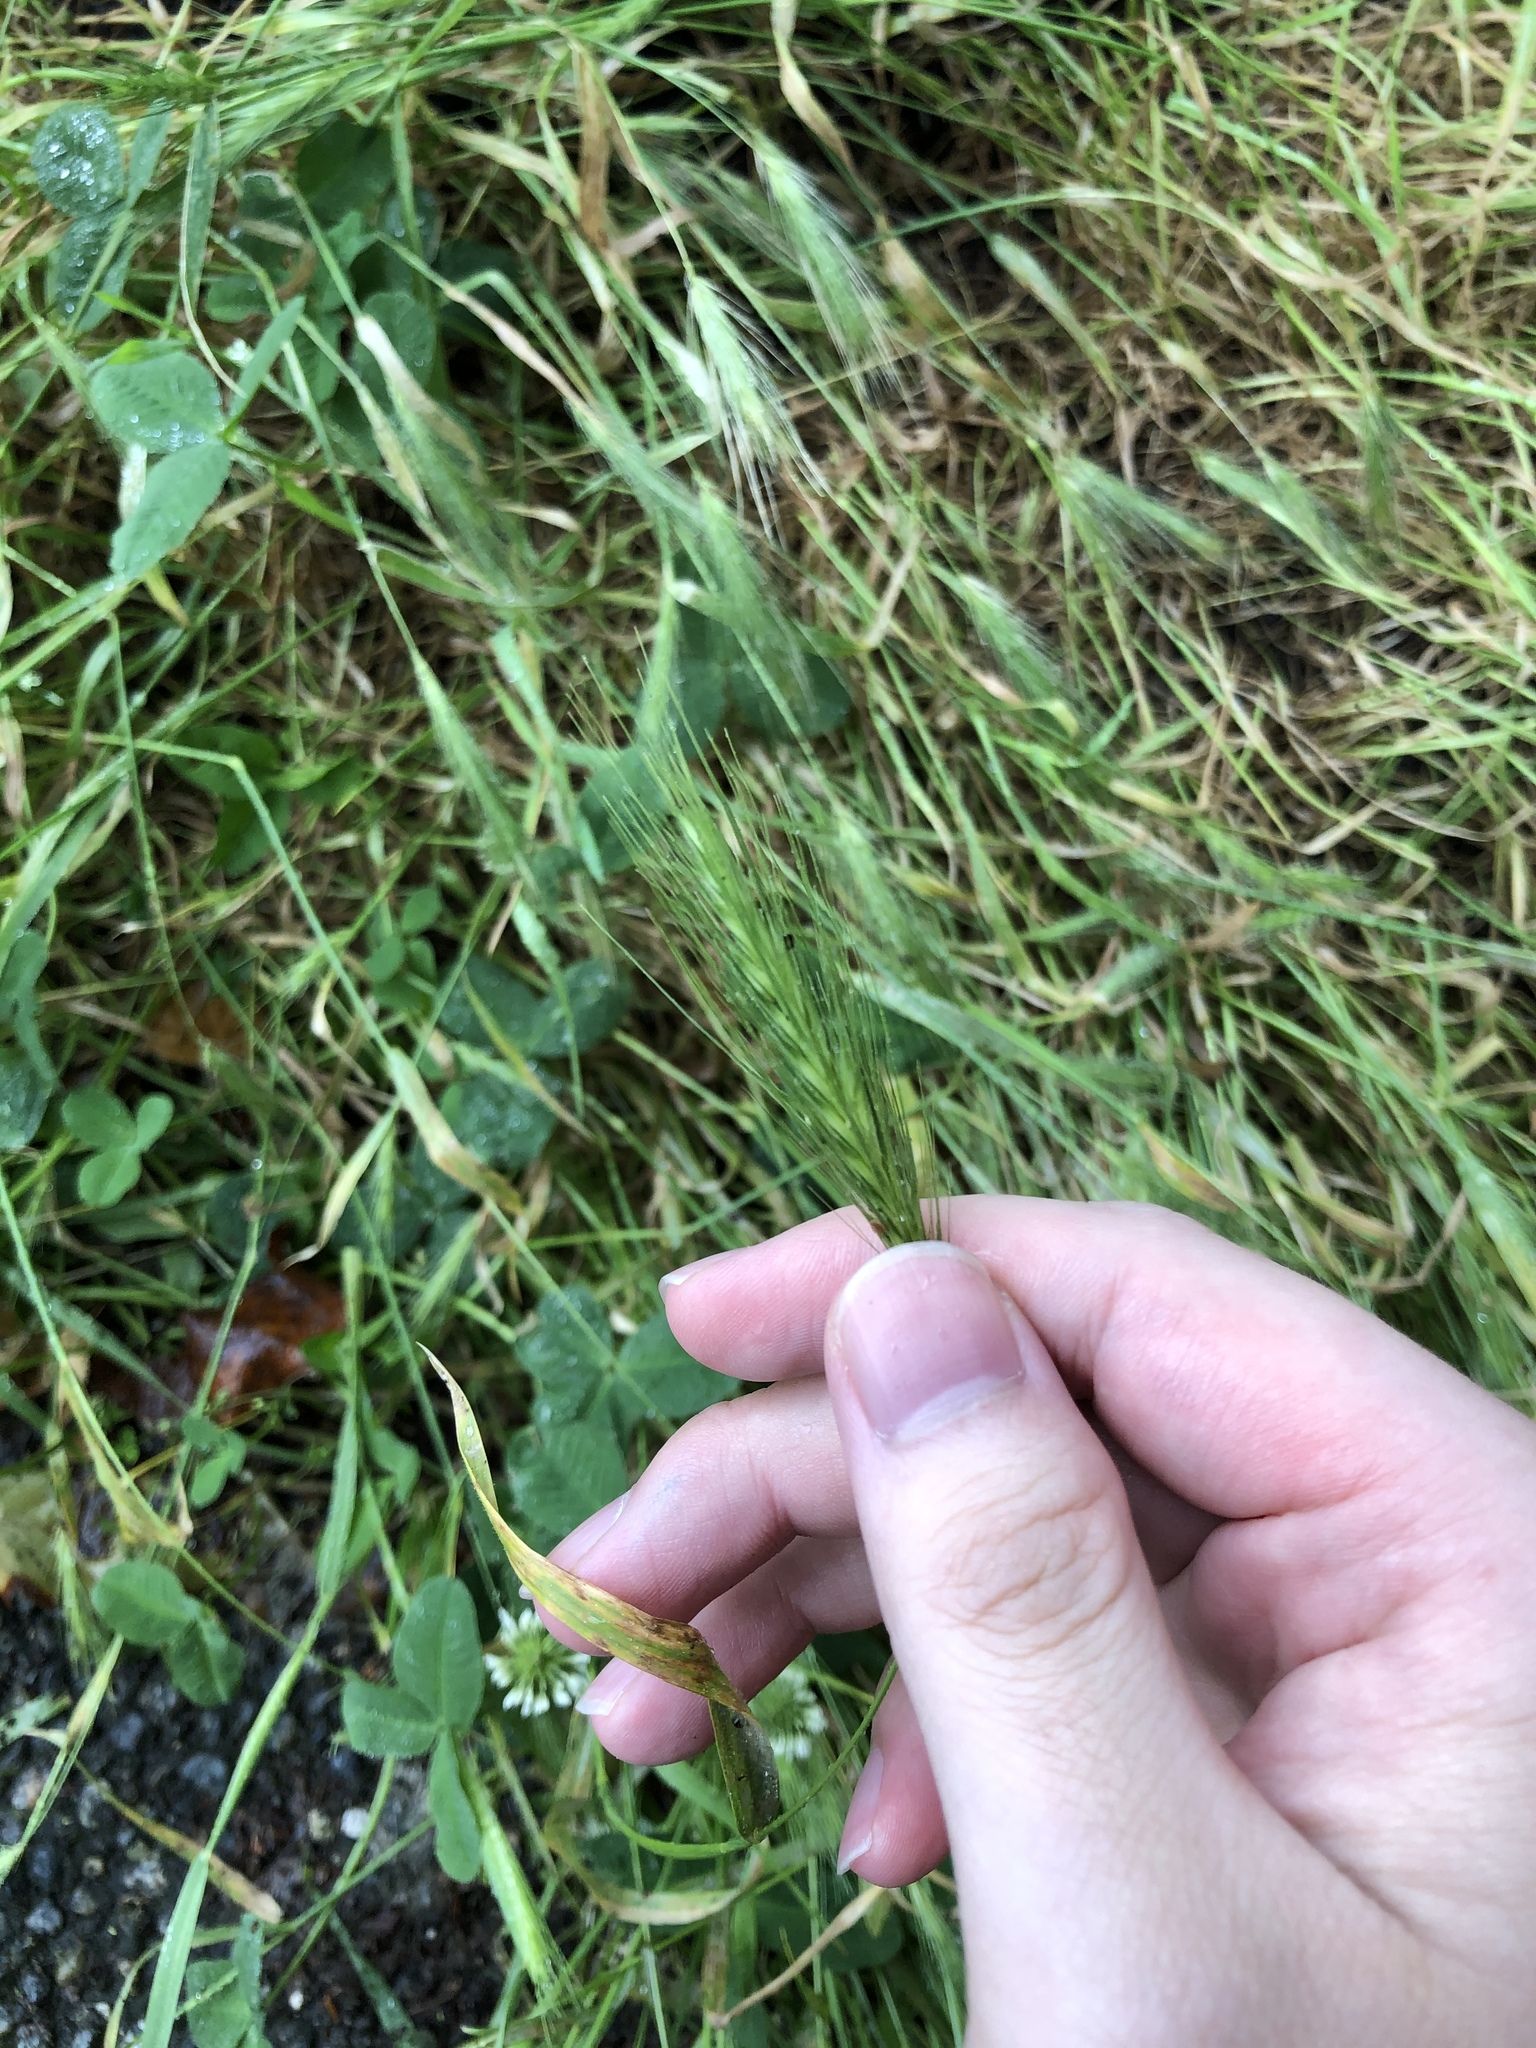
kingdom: Plantae
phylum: Tracheophyta
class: Liliopsida
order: Poales
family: Poaceae
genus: Hordeum
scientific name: Hordeum murinum
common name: Wall barley
